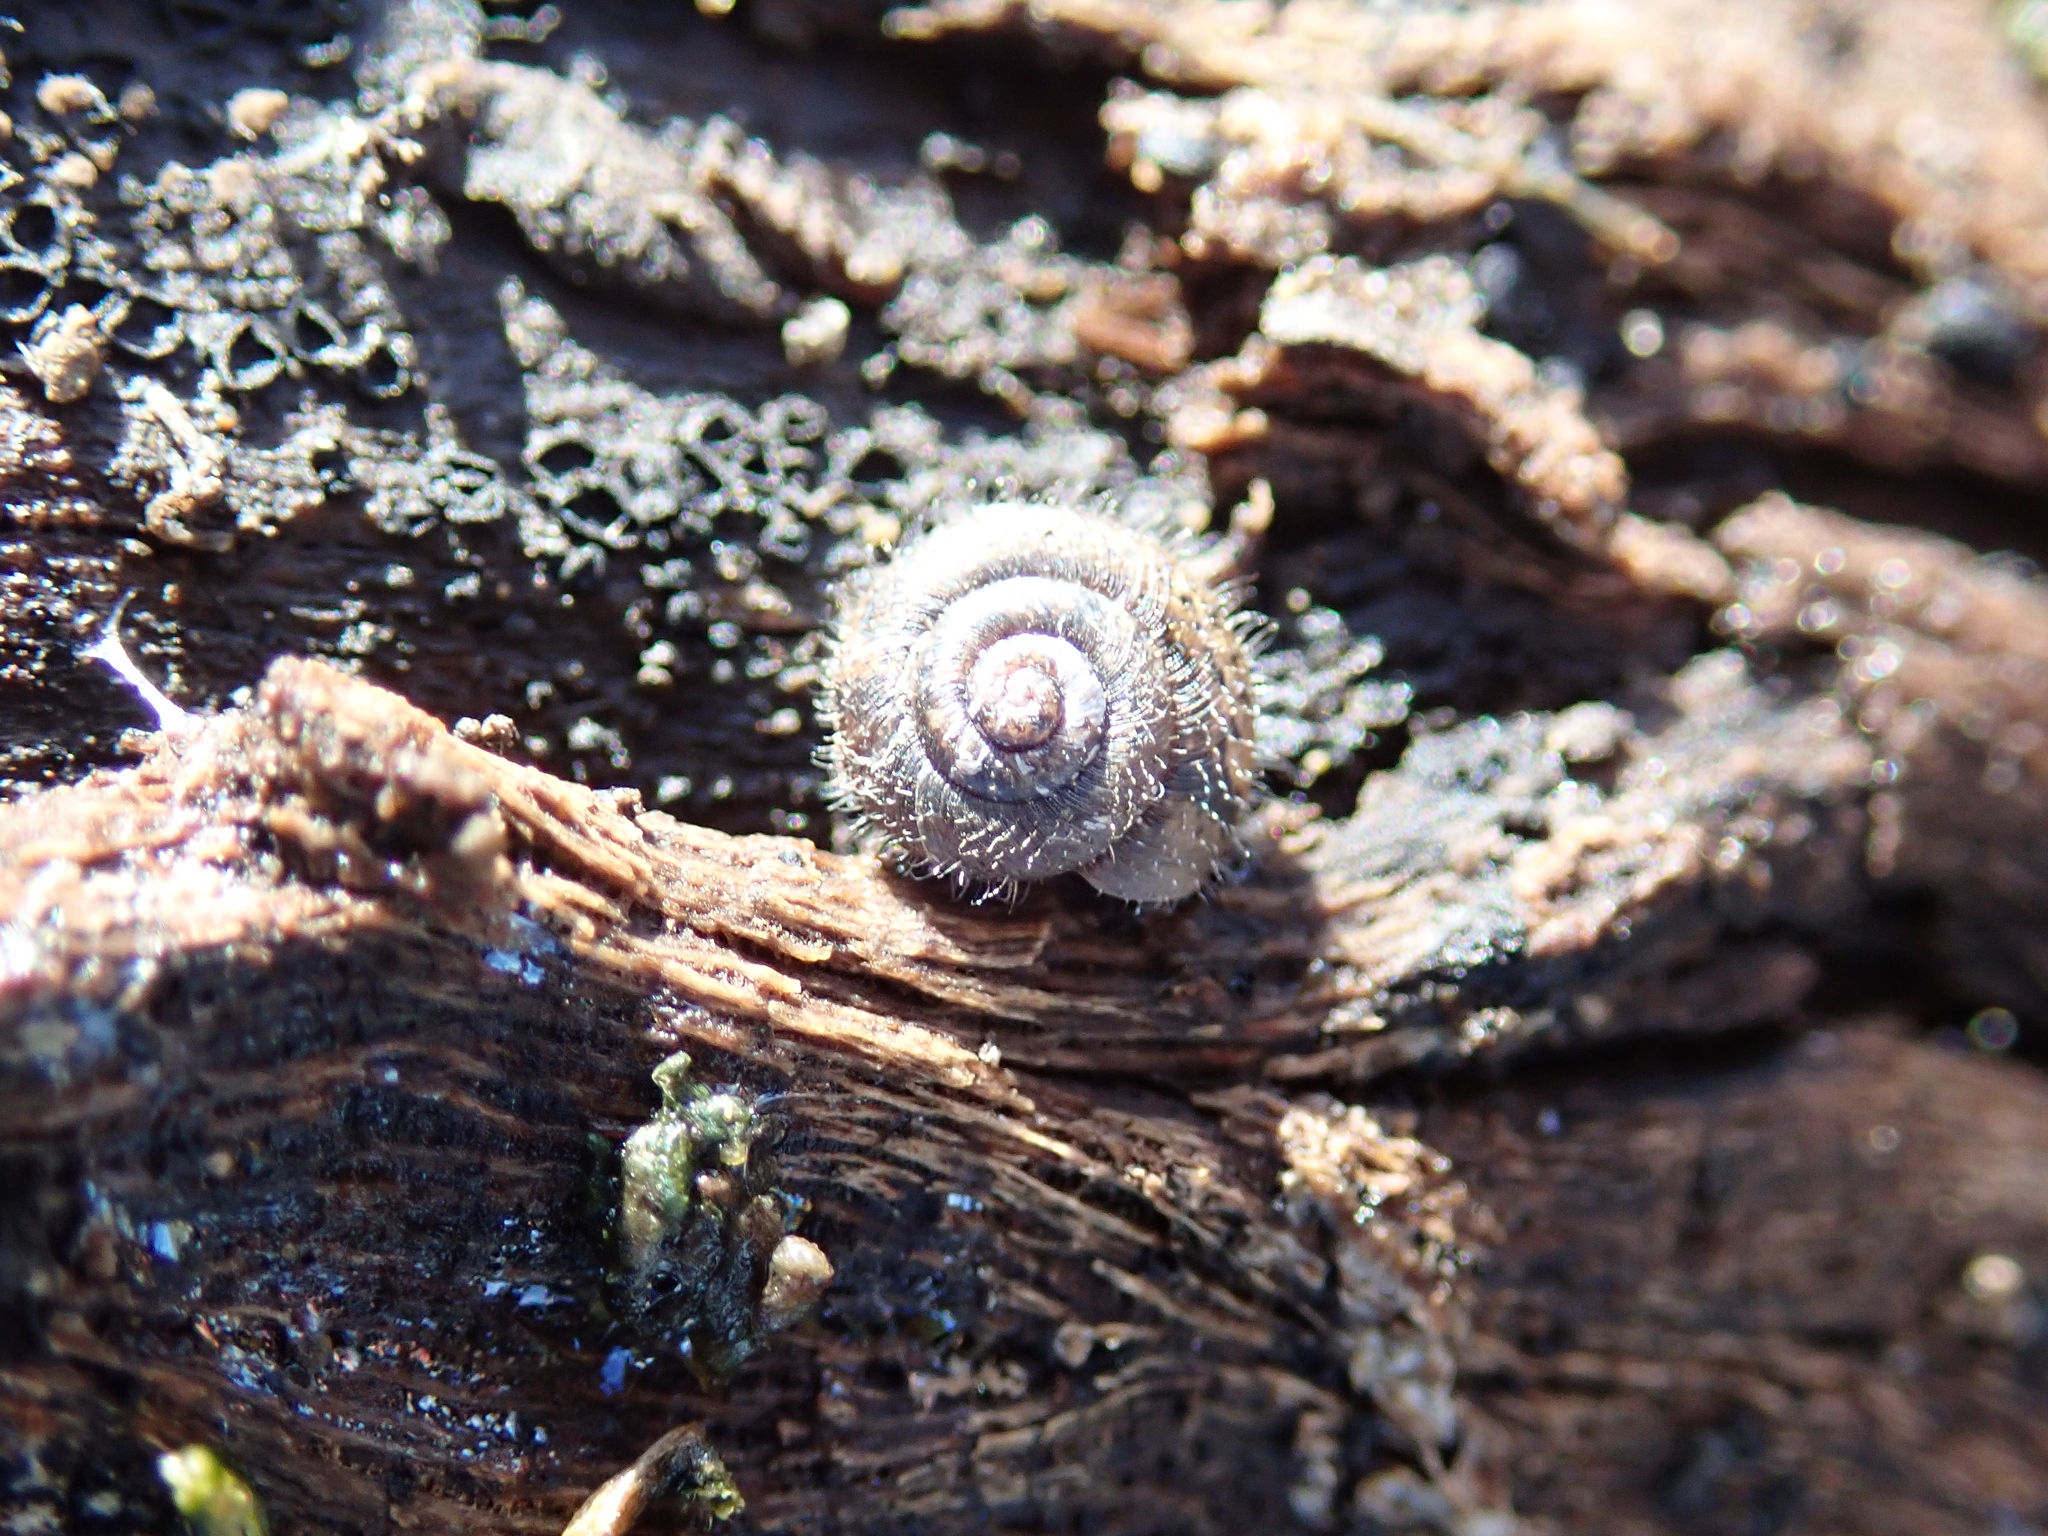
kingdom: Animalia
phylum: Mollusca
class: Gastropoda
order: Stylommatophora
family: Geomitridae
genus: Xerotricha
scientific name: Xerotricha conspurcata
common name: Snail
